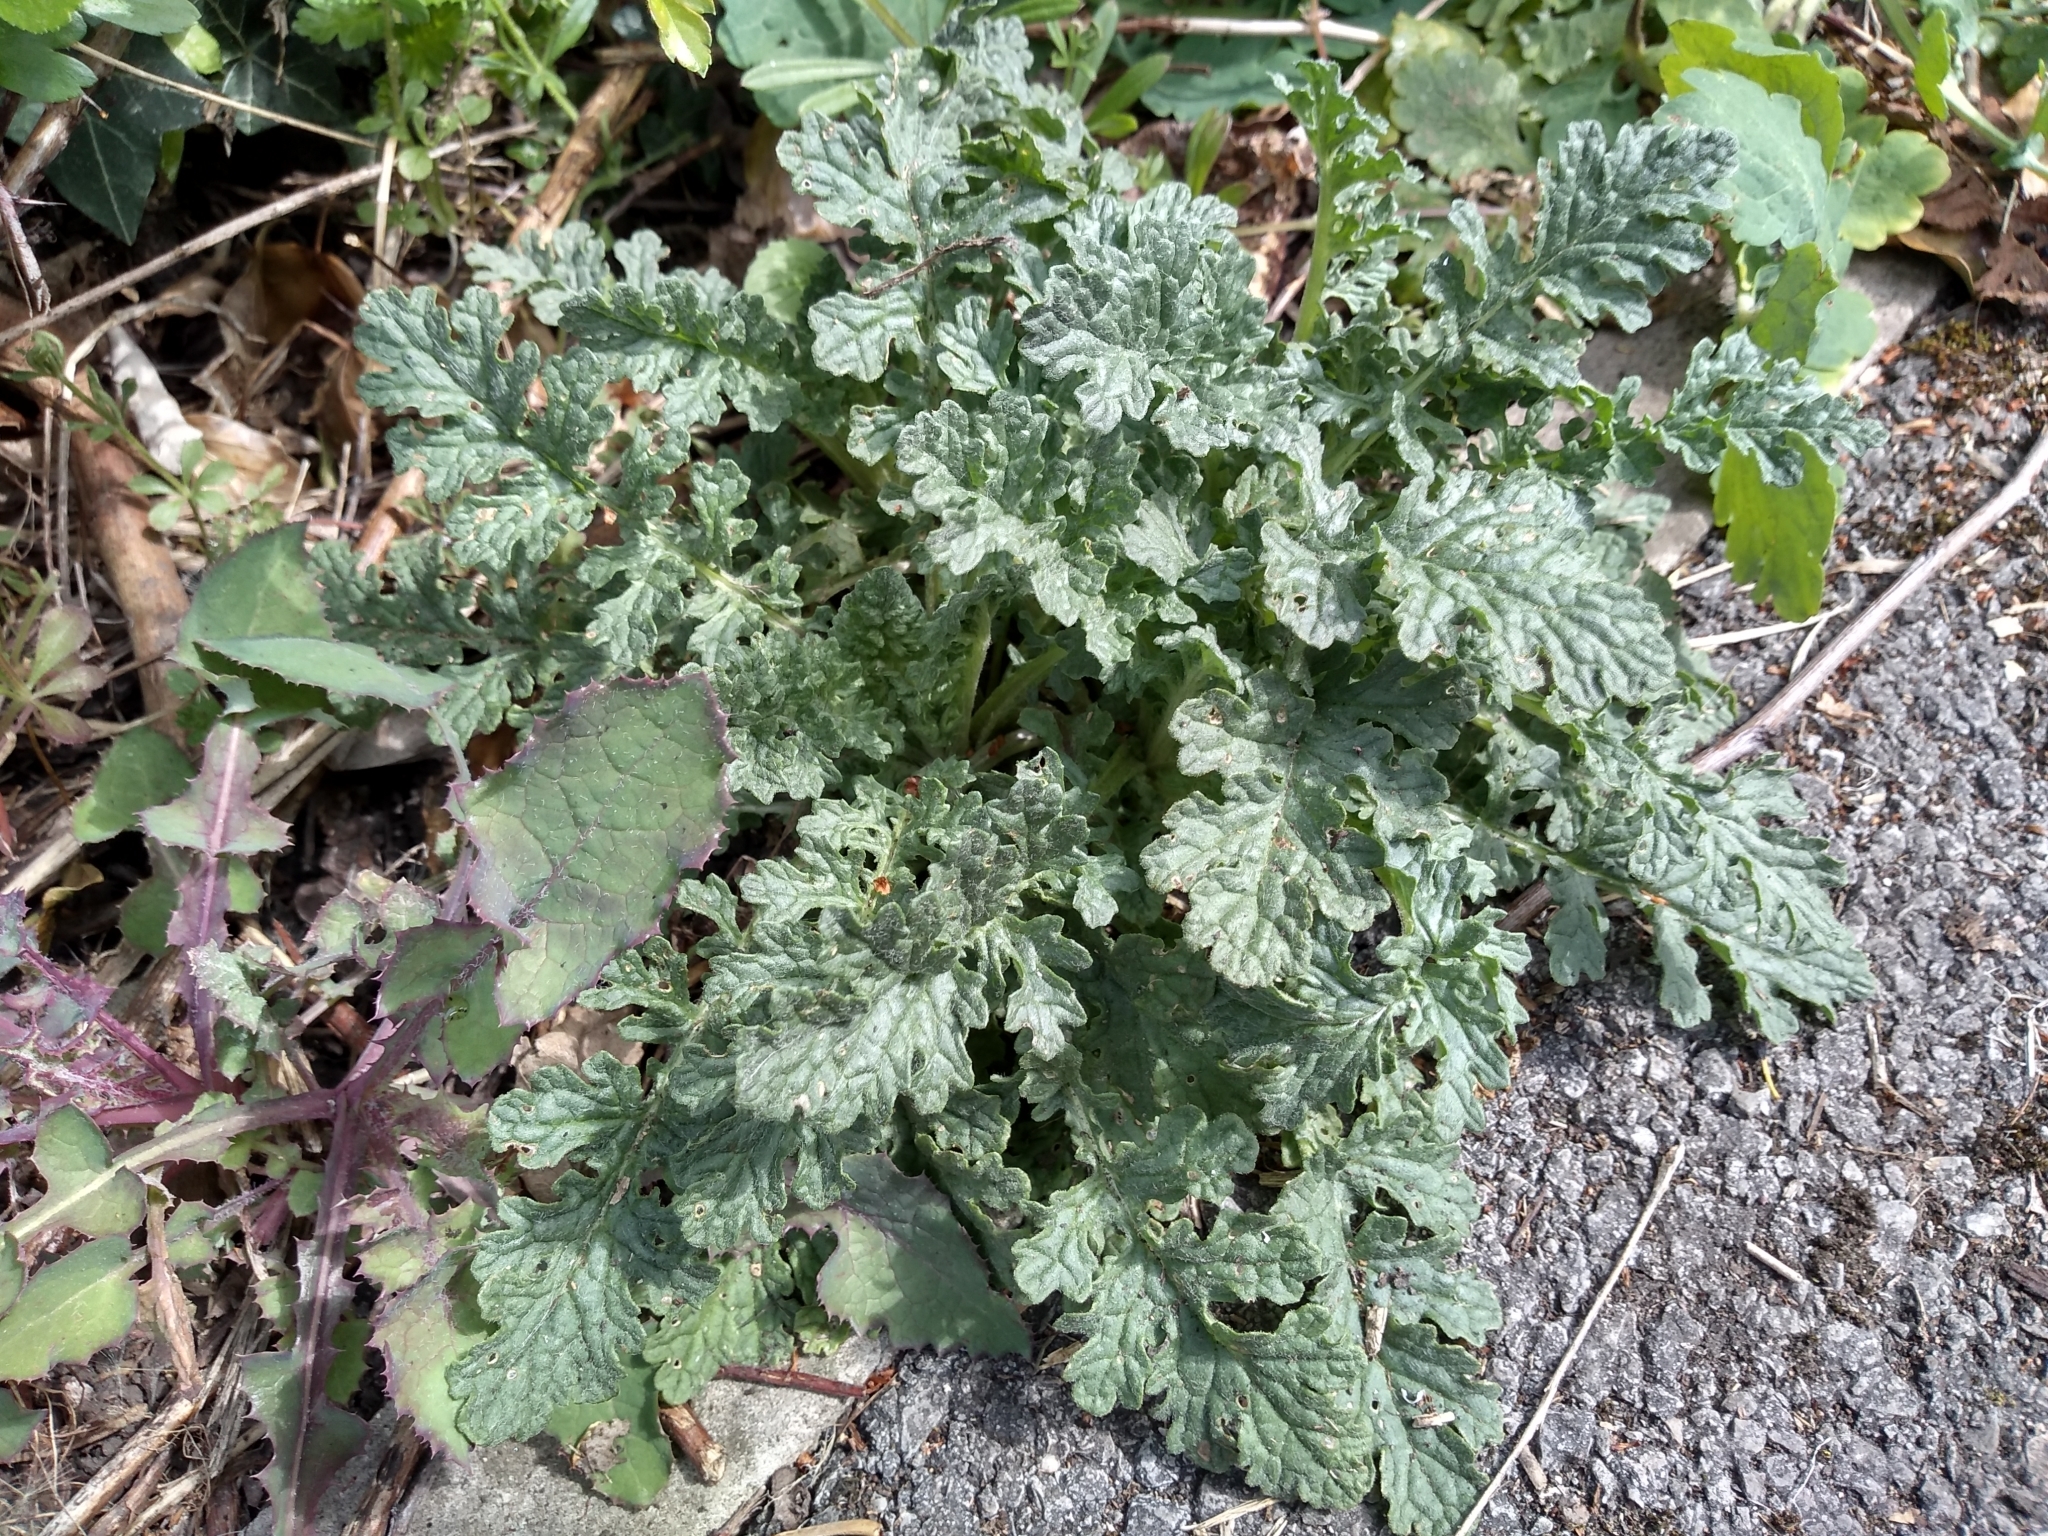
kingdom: Plantae
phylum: Tracheophyta
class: Magnoliopsida
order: Asterales
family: Asteraceae
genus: Jacobaea
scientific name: Jacobaea vulgaris
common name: Stinking willie
